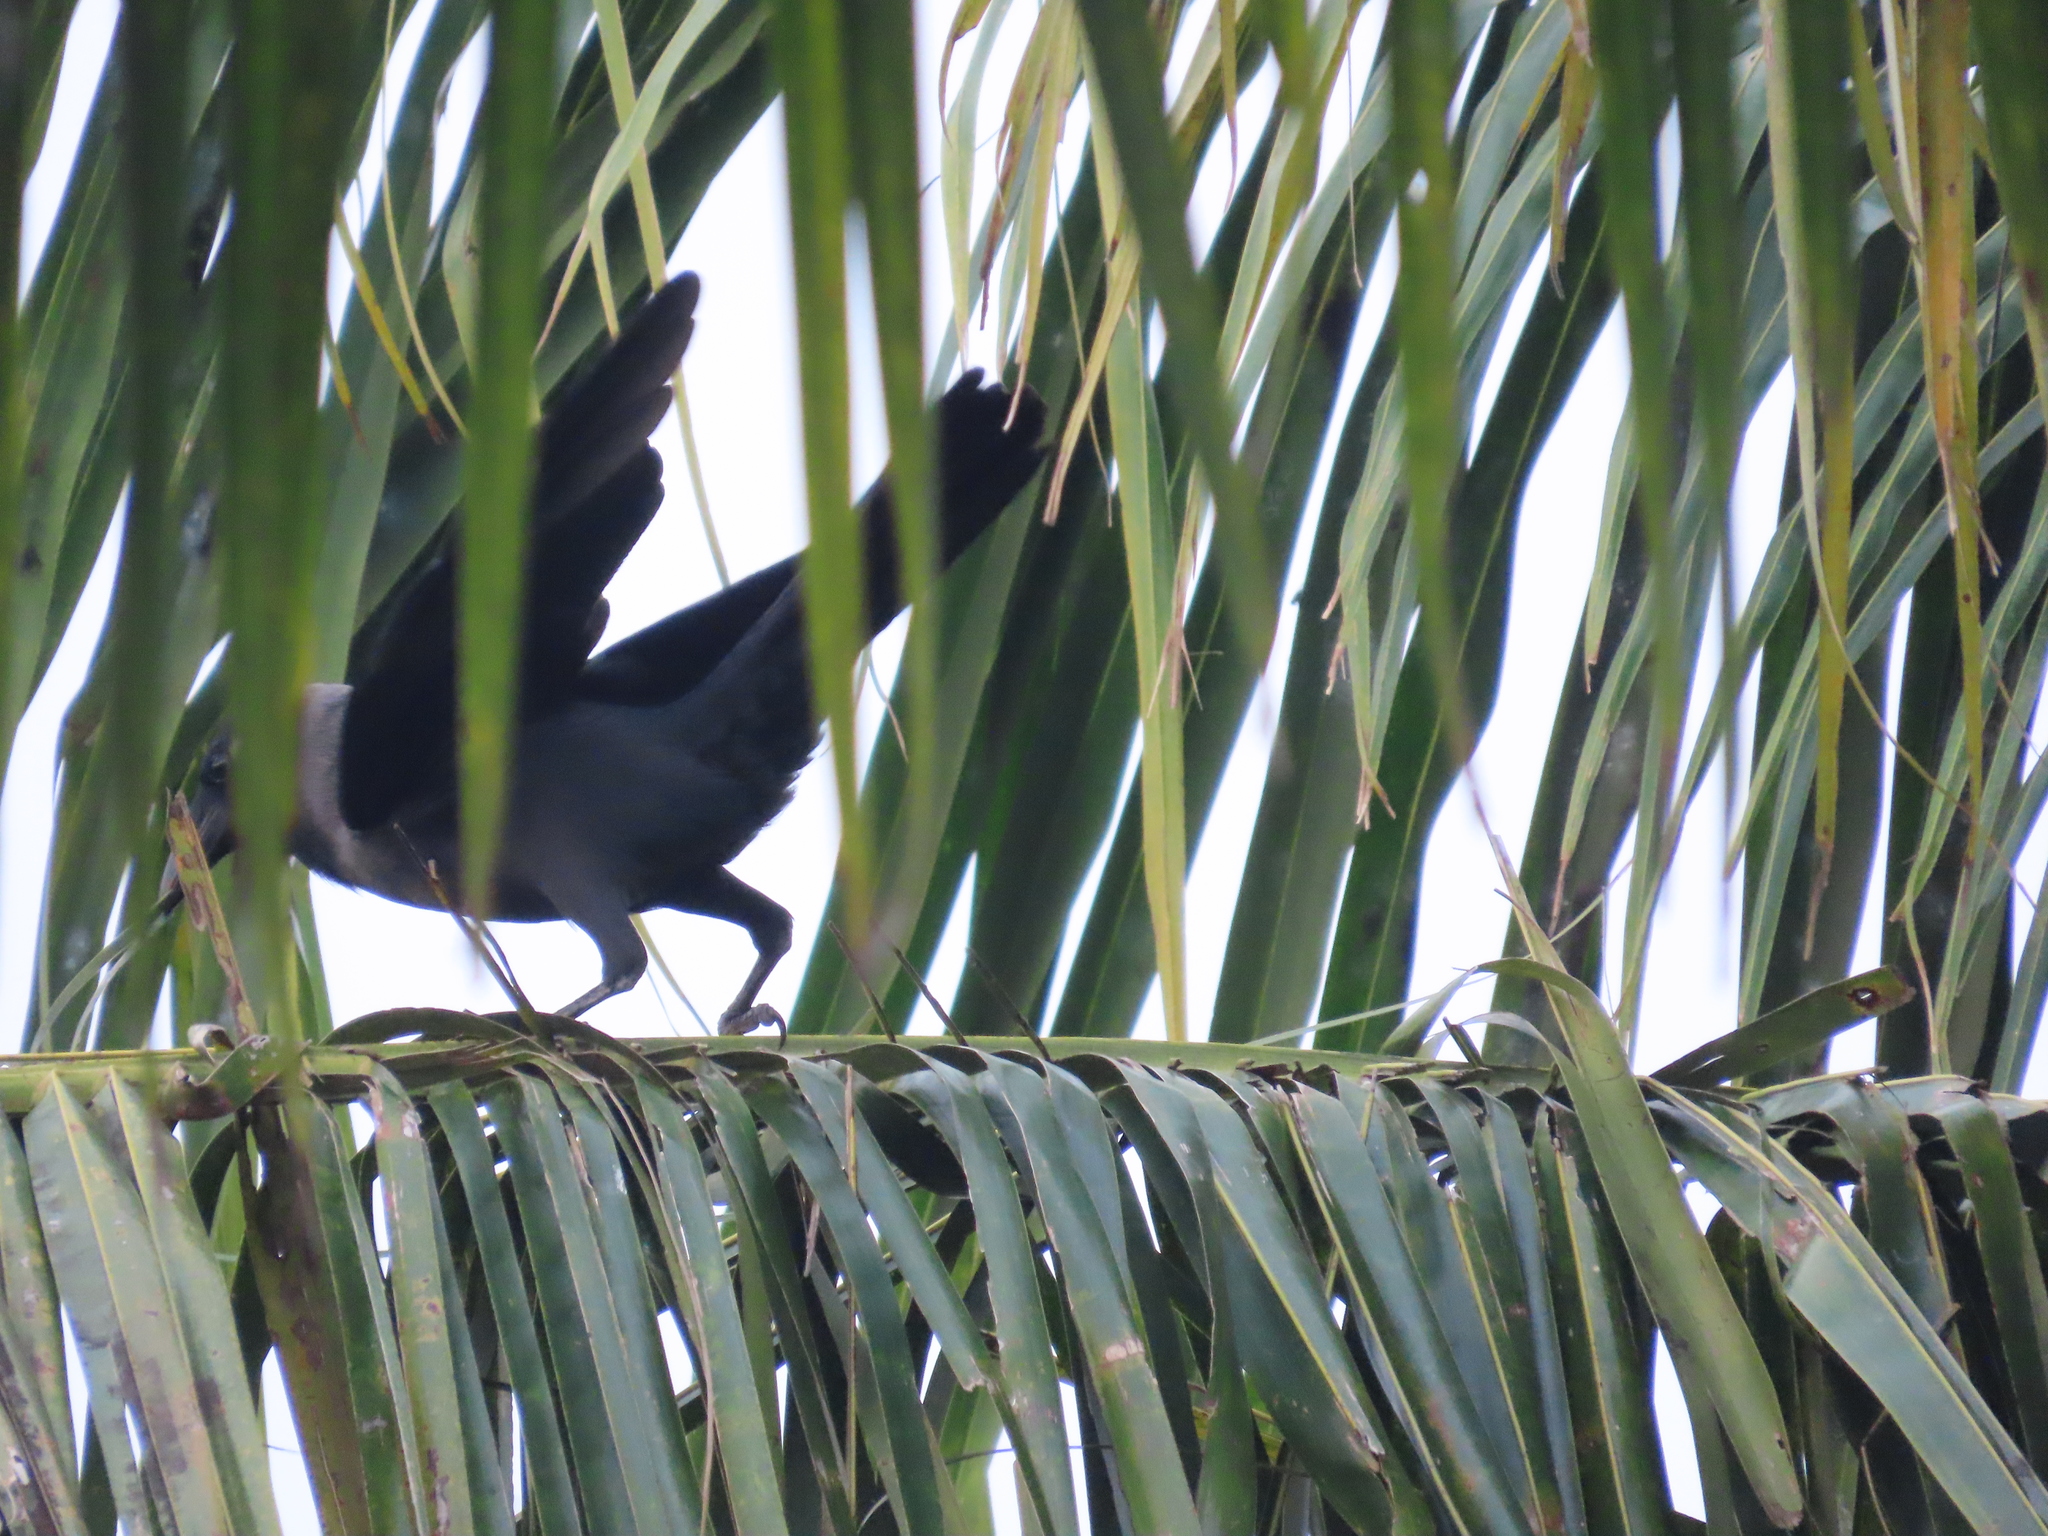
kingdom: Animalia
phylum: Chordata
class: Aves
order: Passeriformes
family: Corvidae
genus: Corvus
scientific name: Corvus splendens
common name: House crow
